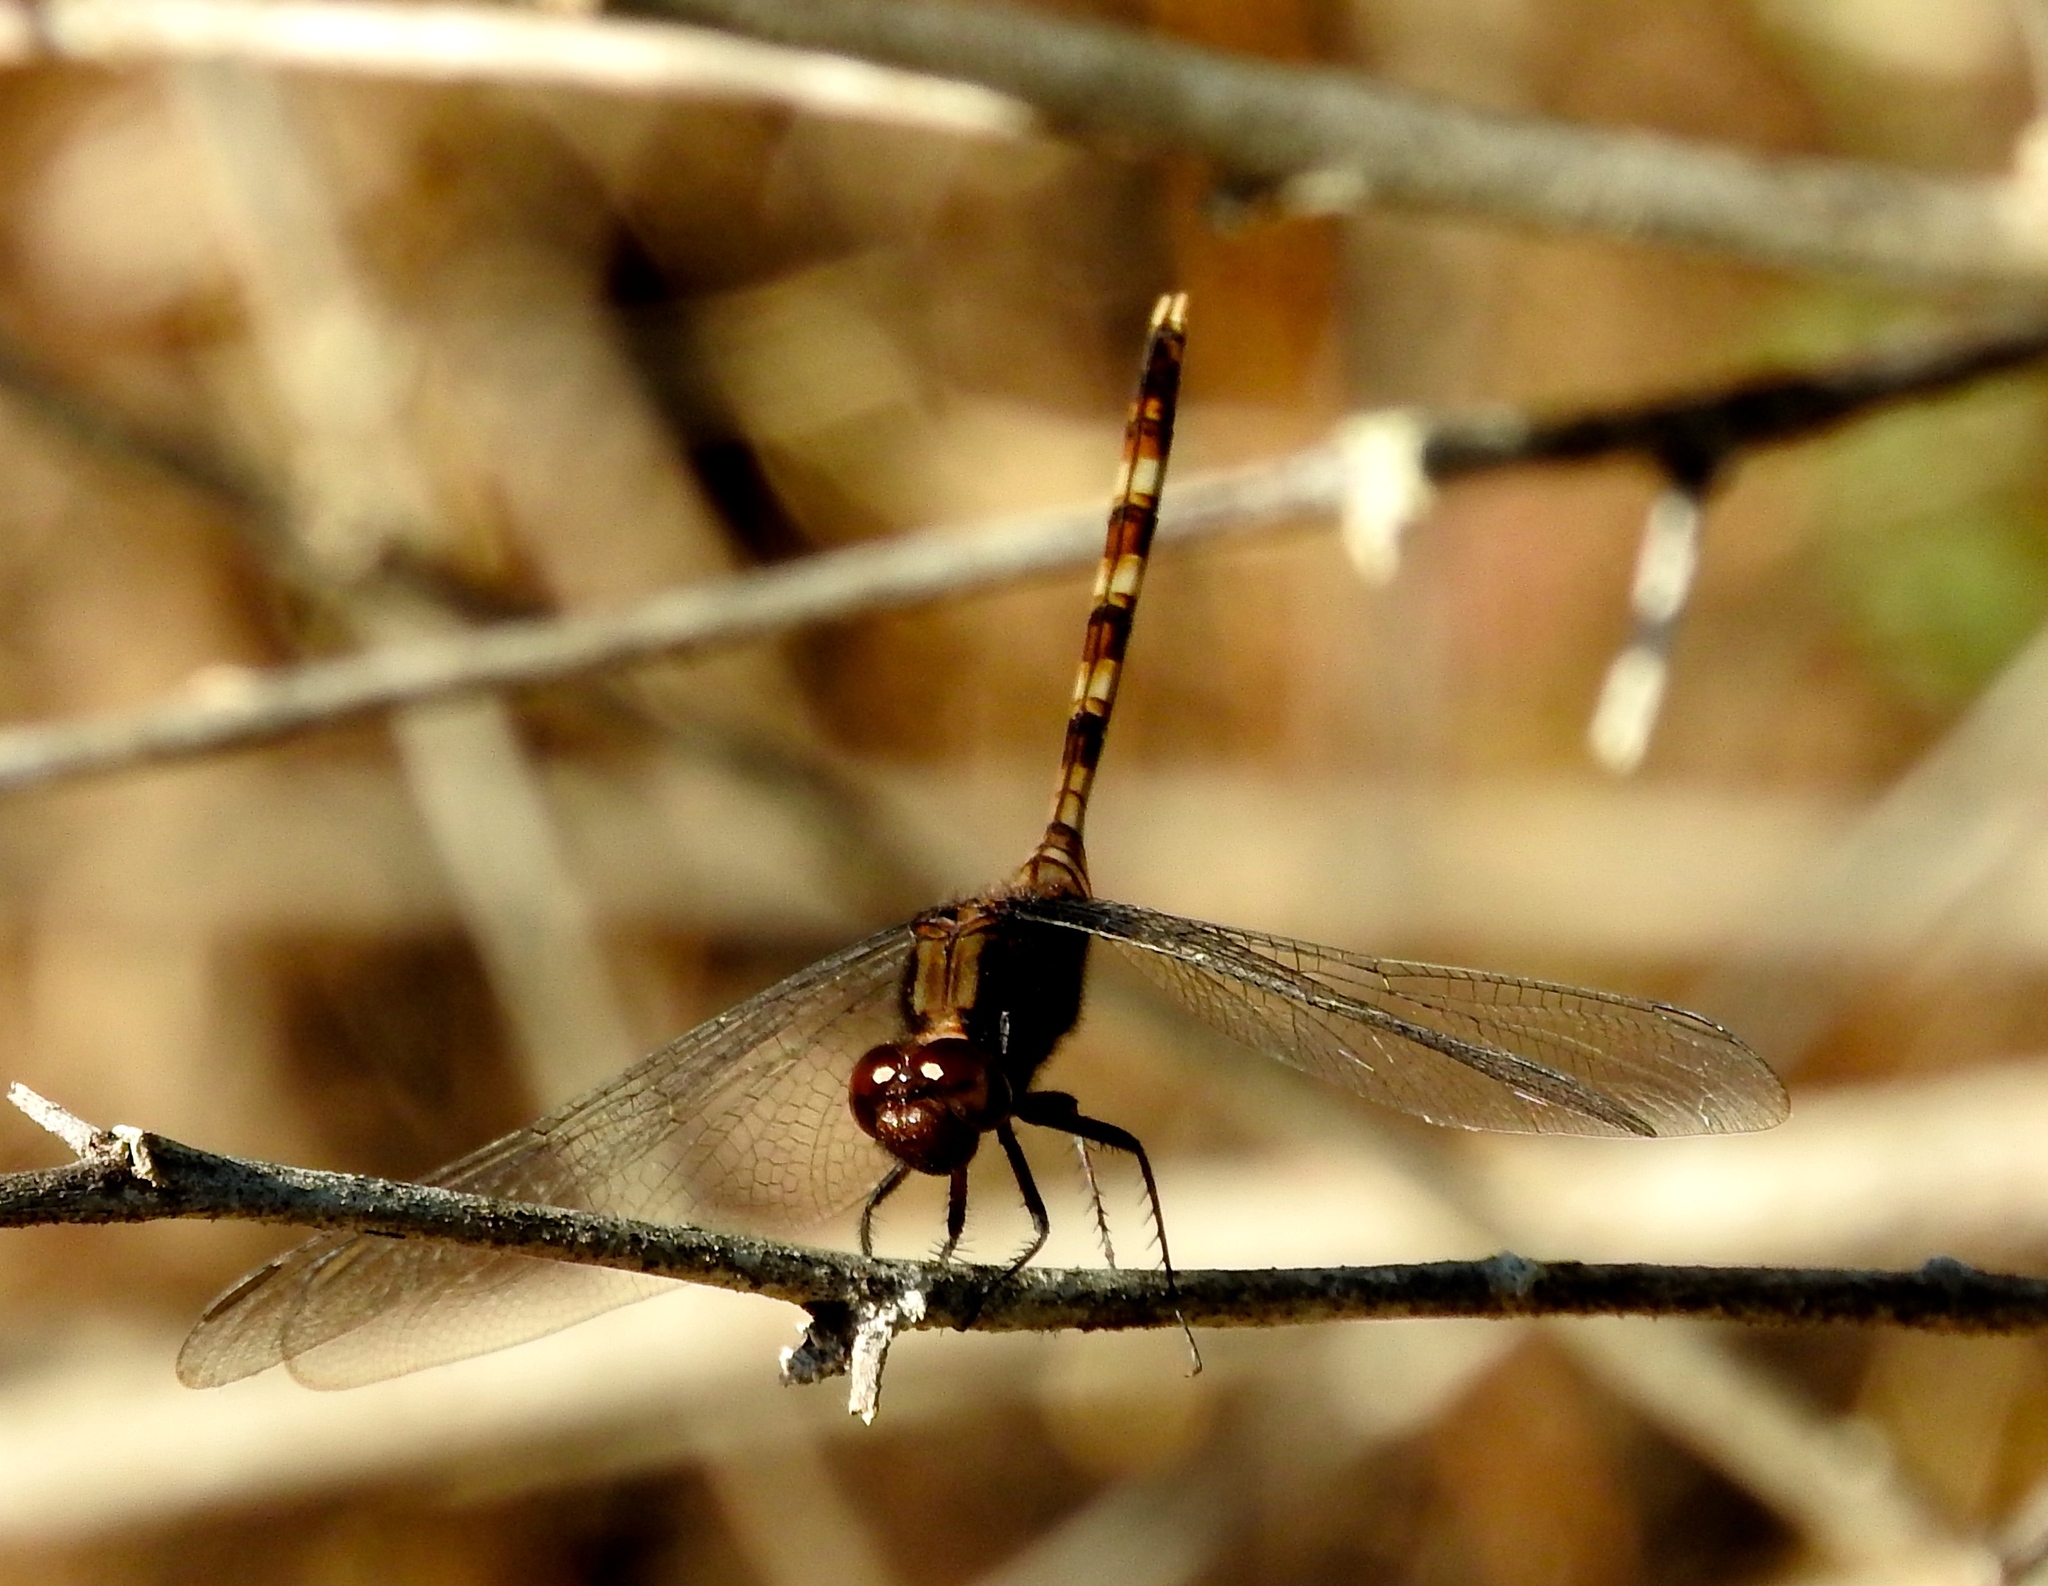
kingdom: Animalia
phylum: Arthropoda
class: Insecta
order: Odonata
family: Libellulidae
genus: Erythemis
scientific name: Erythemis plebeja
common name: Pin-tailed pondhawk
